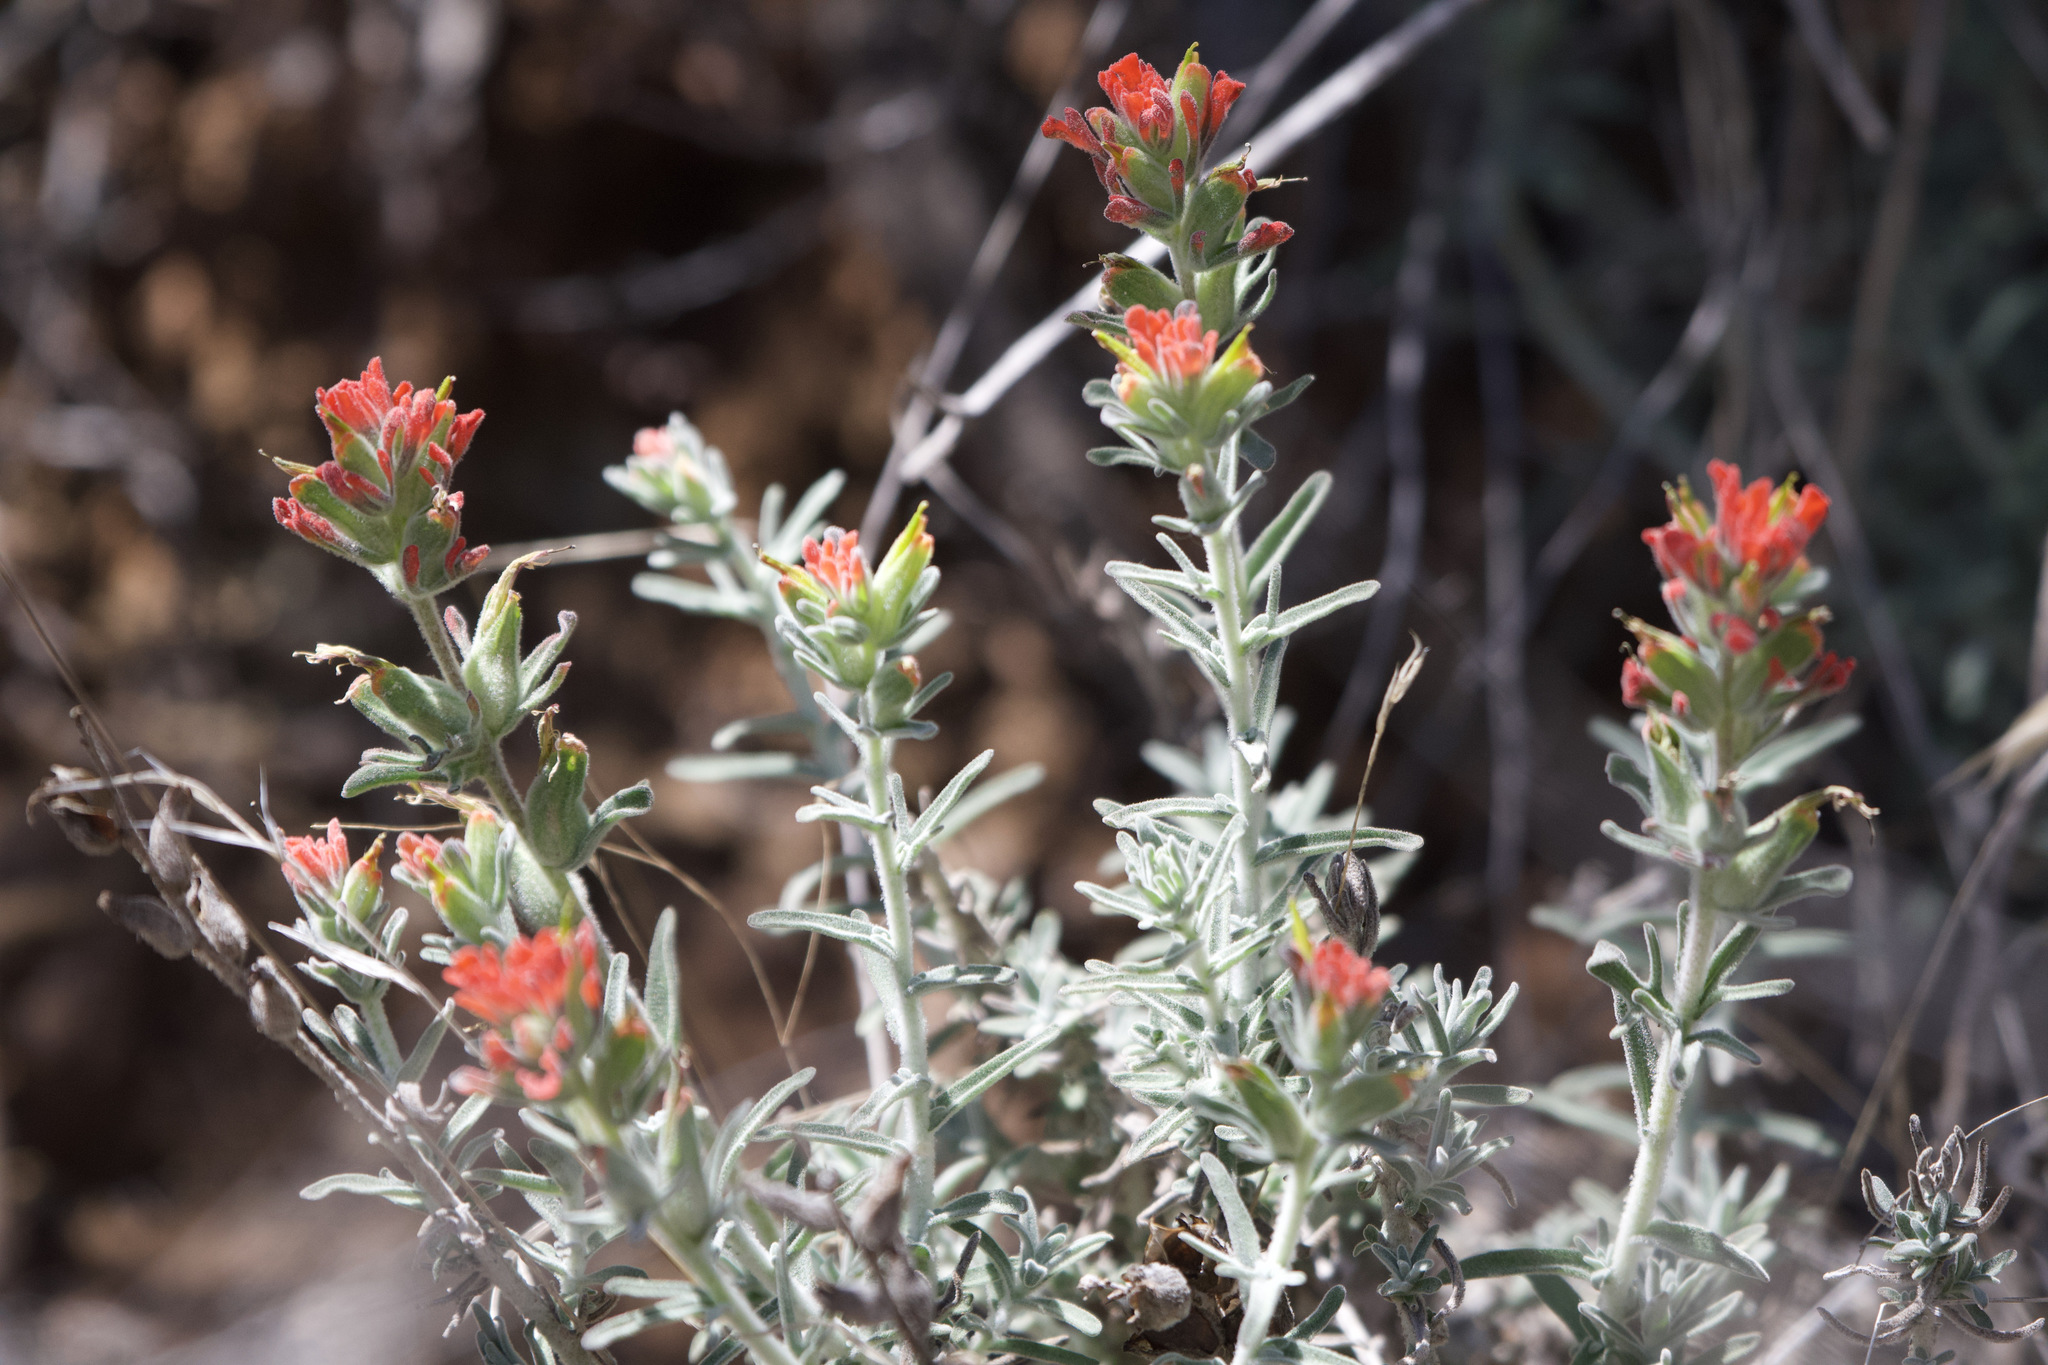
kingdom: Plantae
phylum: Tracheophyta
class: Magnoliopsida
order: Lamiales
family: Orobanchaceae
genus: Castilleja
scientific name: Castilleja foliolosa
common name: Woolly indian paintbrush
